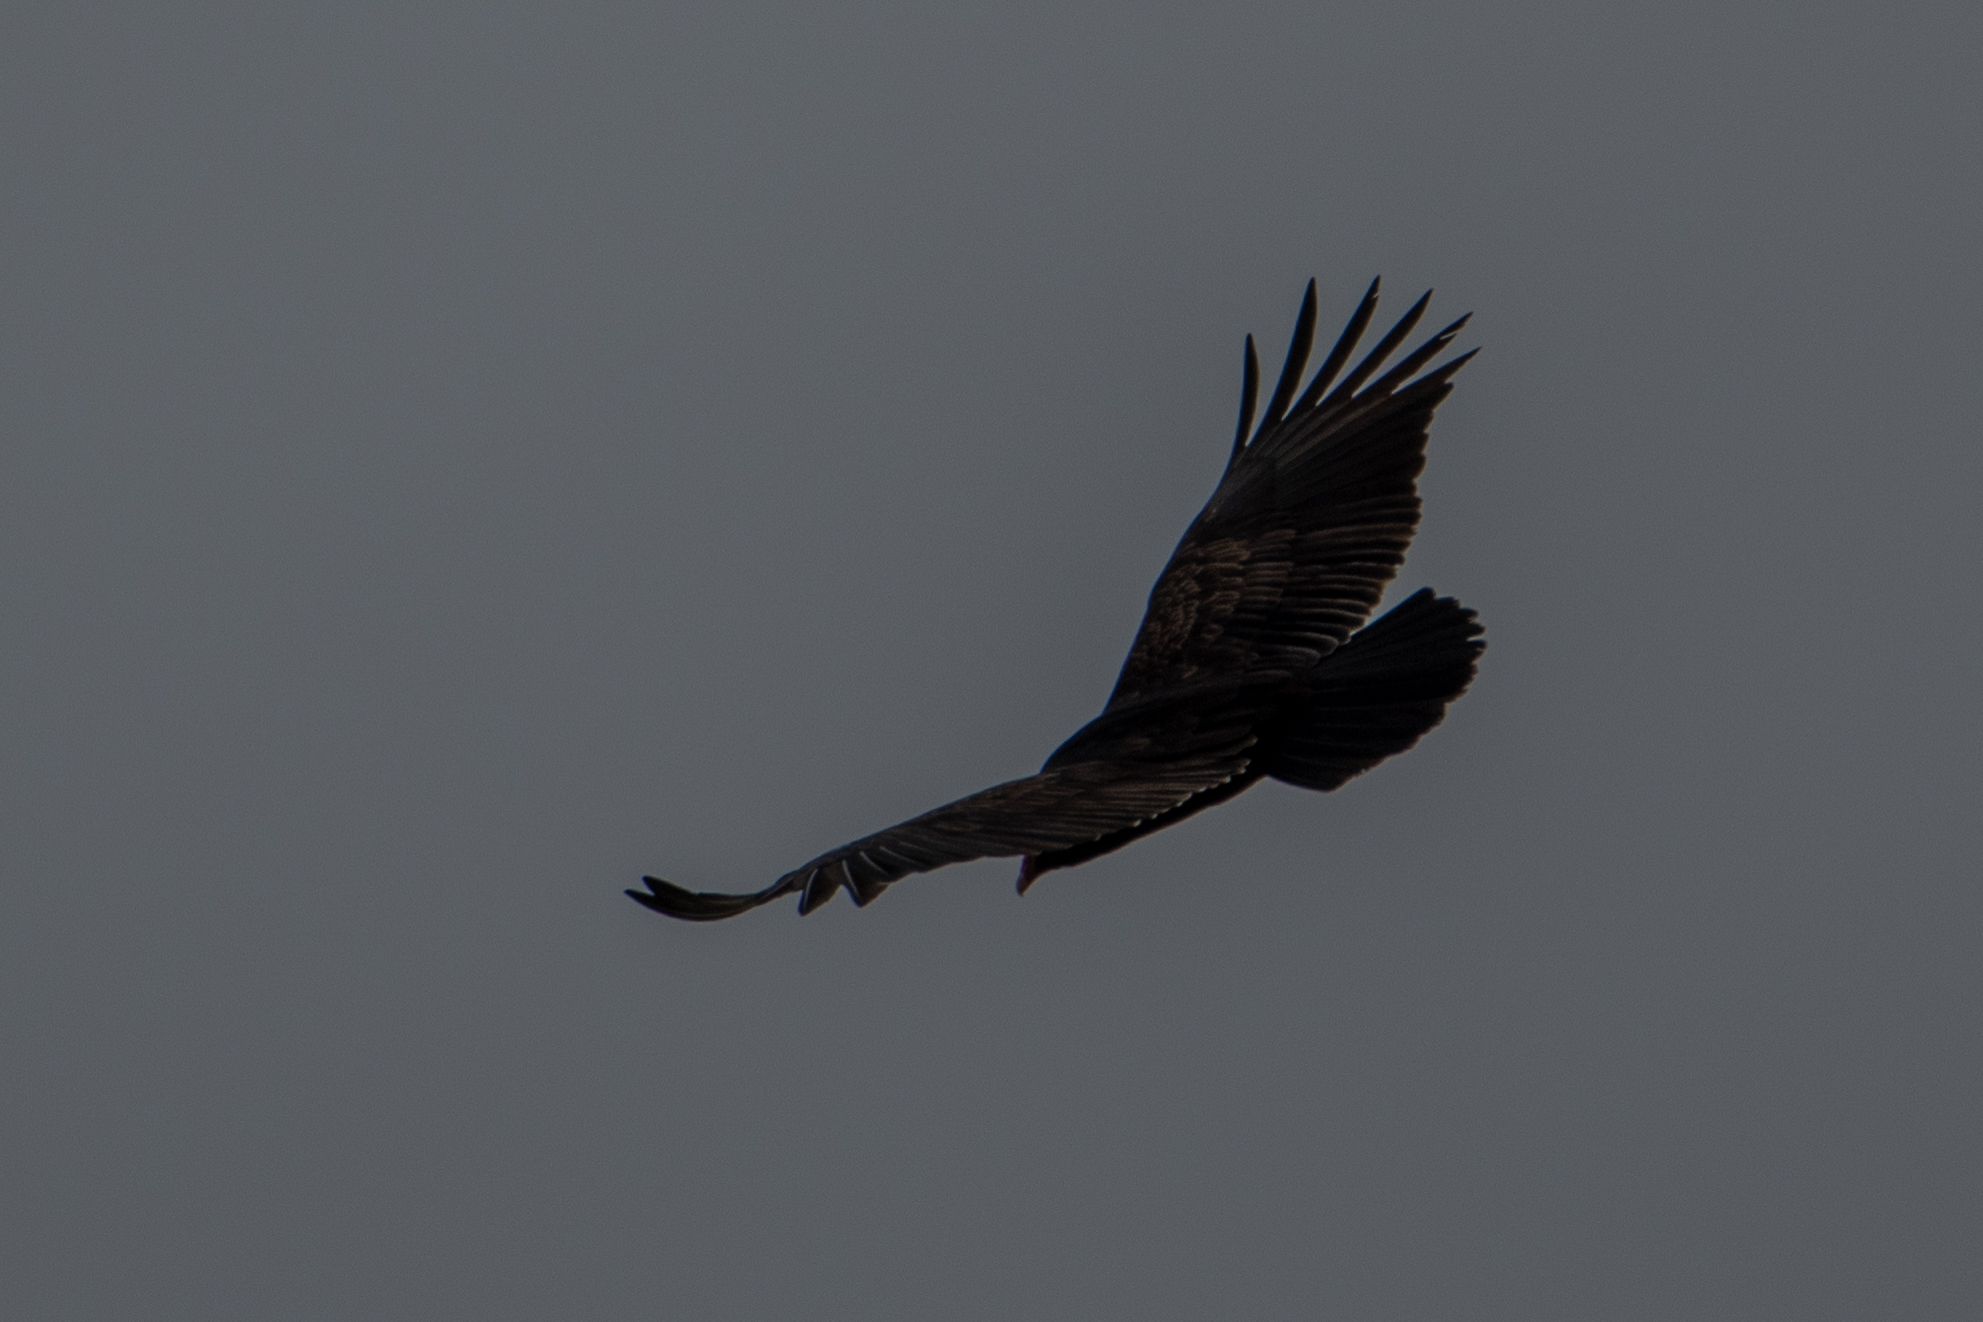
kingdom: Animalia
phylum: Chordata
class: Aves
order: Accipitriformes
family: Cathartidae
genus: Cathartes
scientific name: Cathartes aura
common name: Turkey vulture
